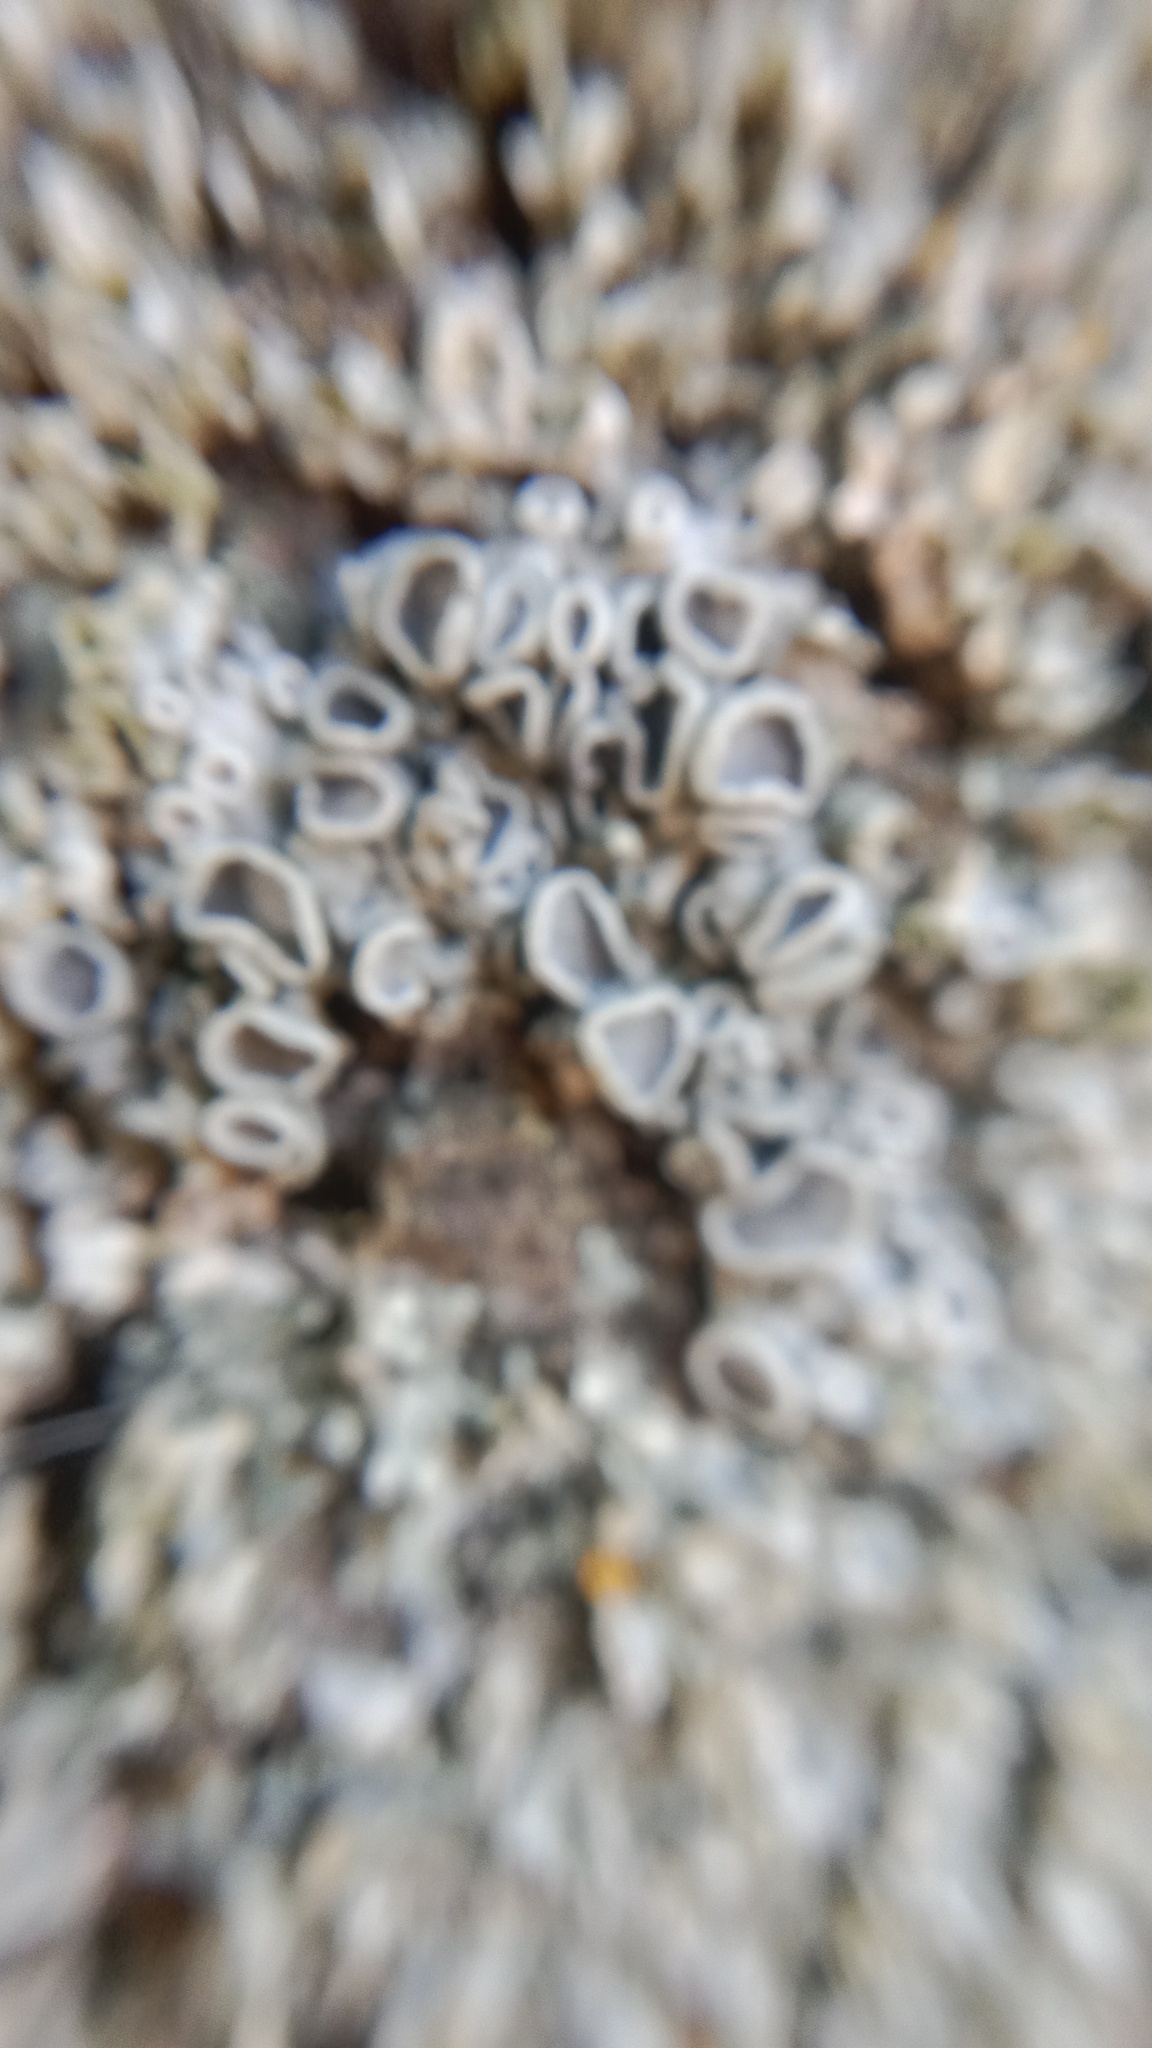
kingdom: Fungi
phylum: Ascomycota
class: Lecanoromycetes
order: Caliciales
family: Physciaceae
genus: Physcia
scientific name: Physcia stellaris
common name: Star rosette lichen
